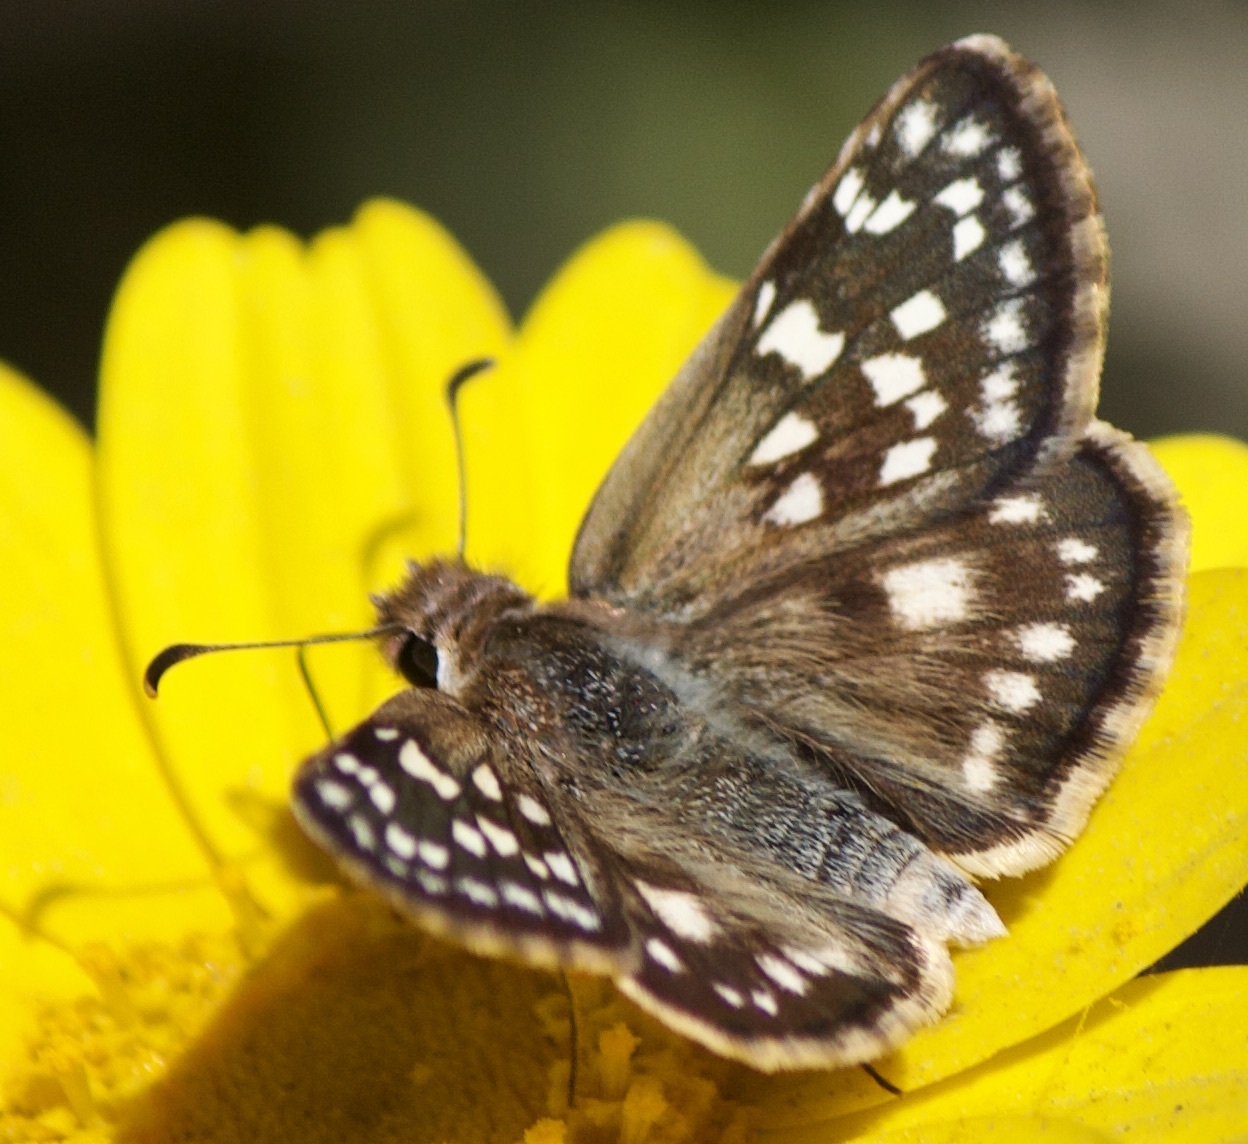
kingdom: Animalia
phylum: Arthropoda
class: Insecta
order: Lepidoptera
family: Hesperiidae
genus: Chirgus
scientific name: Chirgus fides
